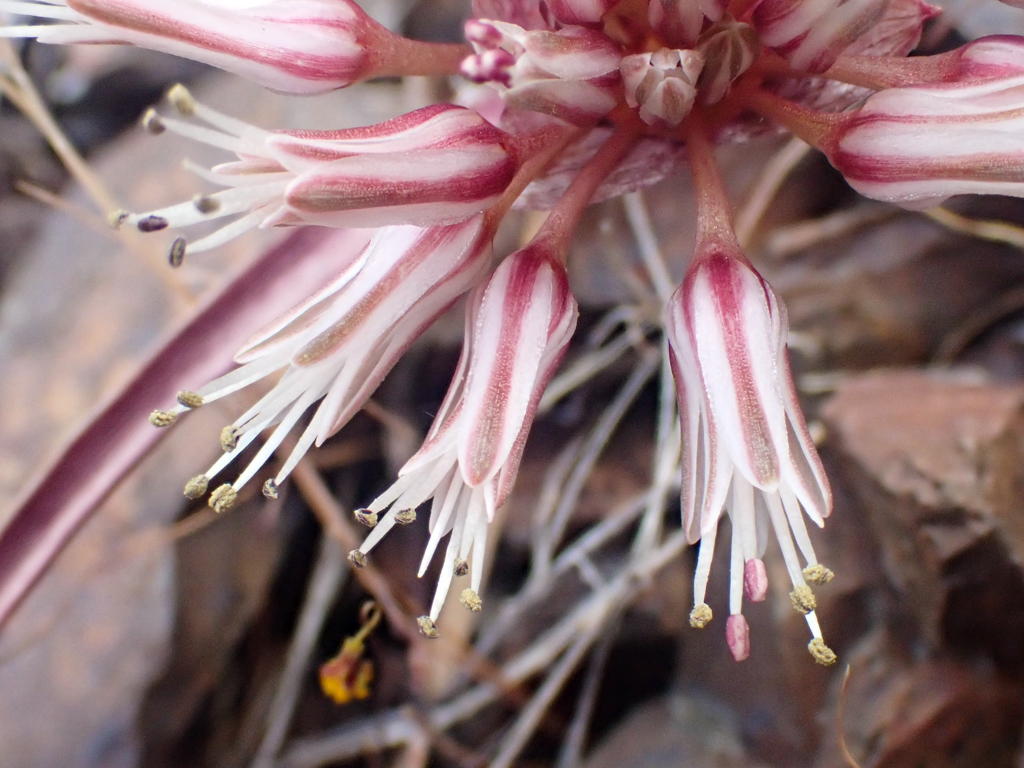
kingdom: Plantae
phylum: Tracheophyta
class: Liliopsida
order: Asparagales
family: Amaryllidaceae
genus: Allium
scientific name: Allium burlewii
